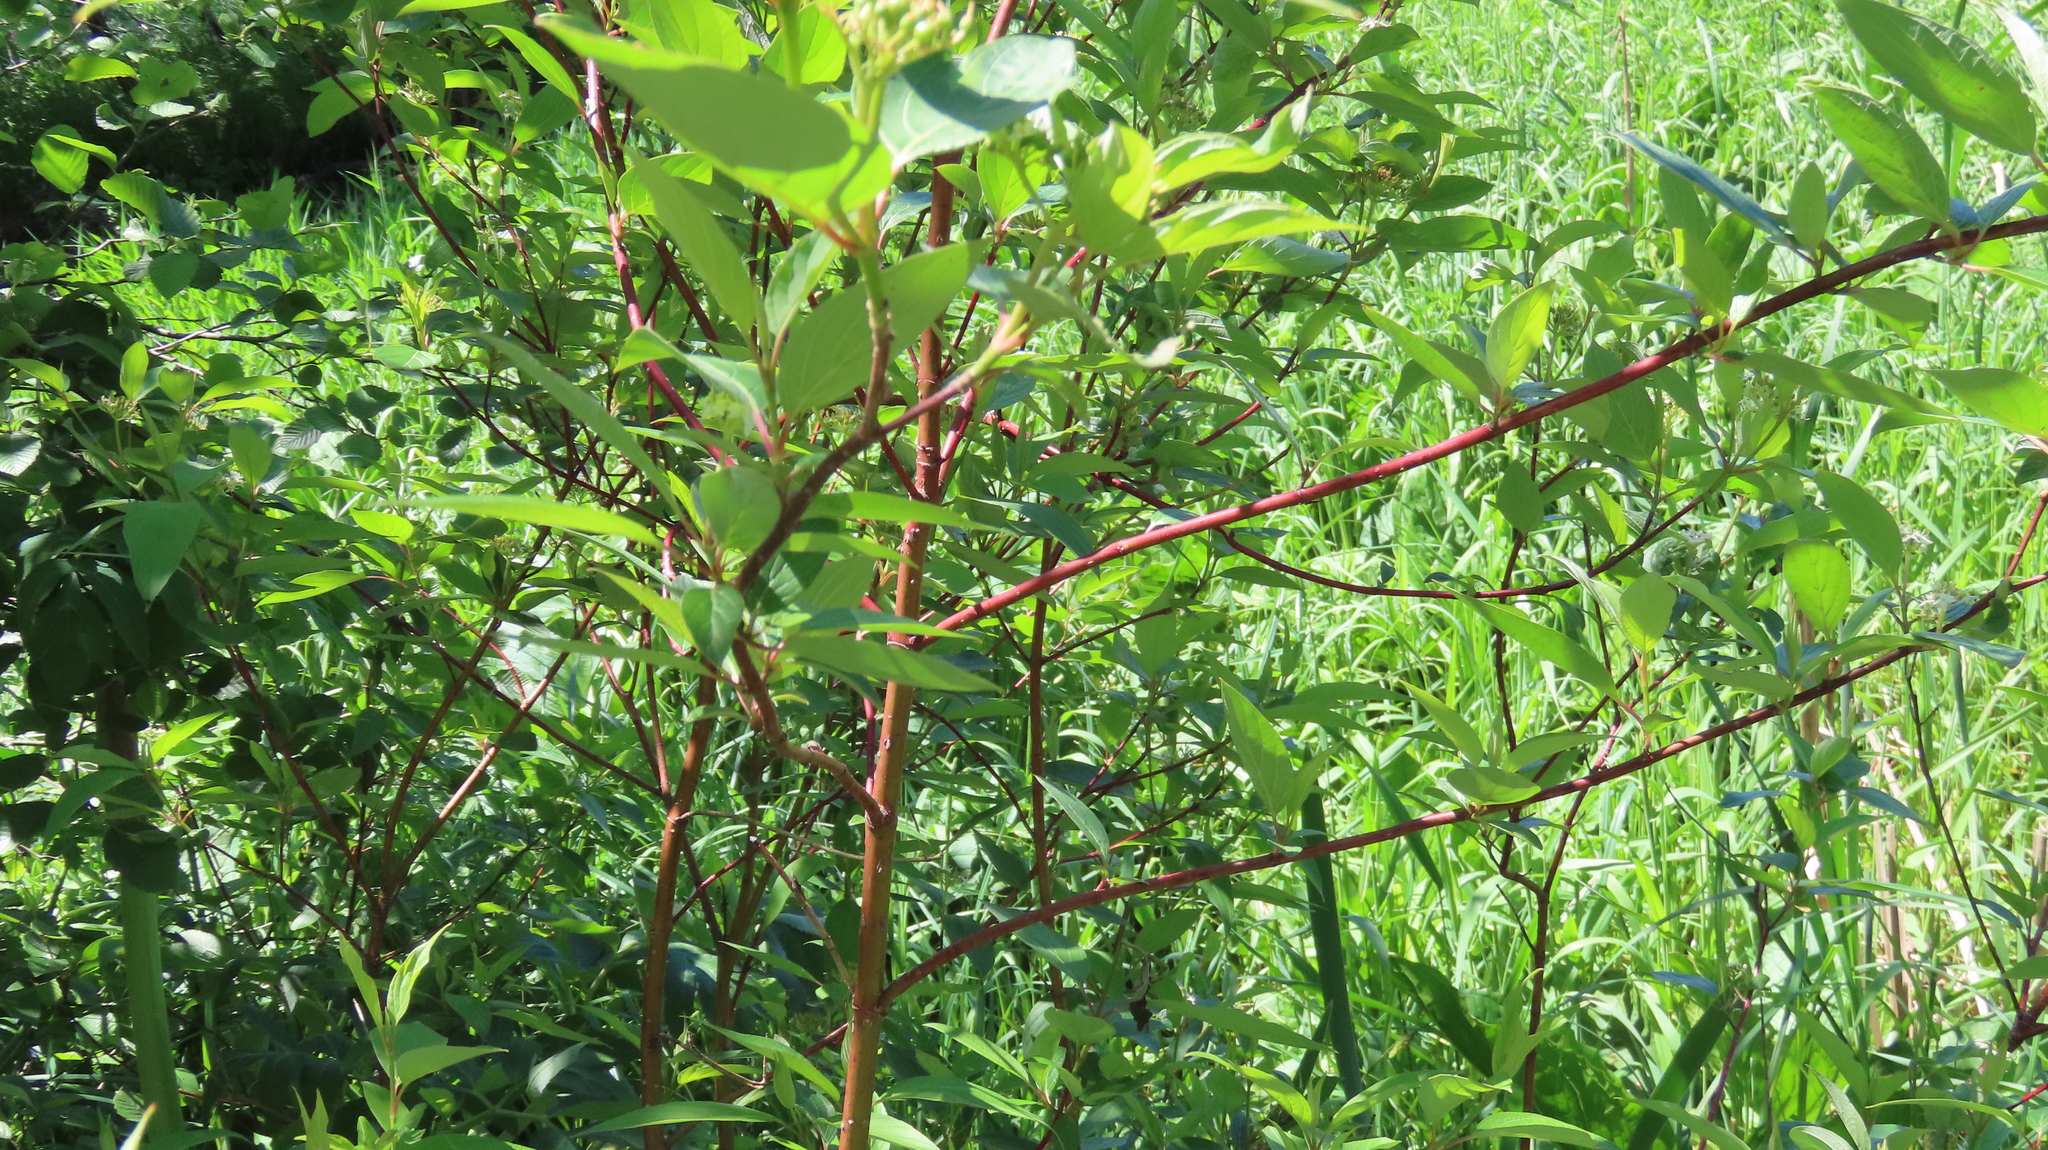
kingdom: Plantae
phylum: Tracheophyta
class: Magnoliopsida
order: Cornales
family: Cornaceae
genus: Cornus
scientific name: Cornus sericea
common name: Red-osier dogwood
